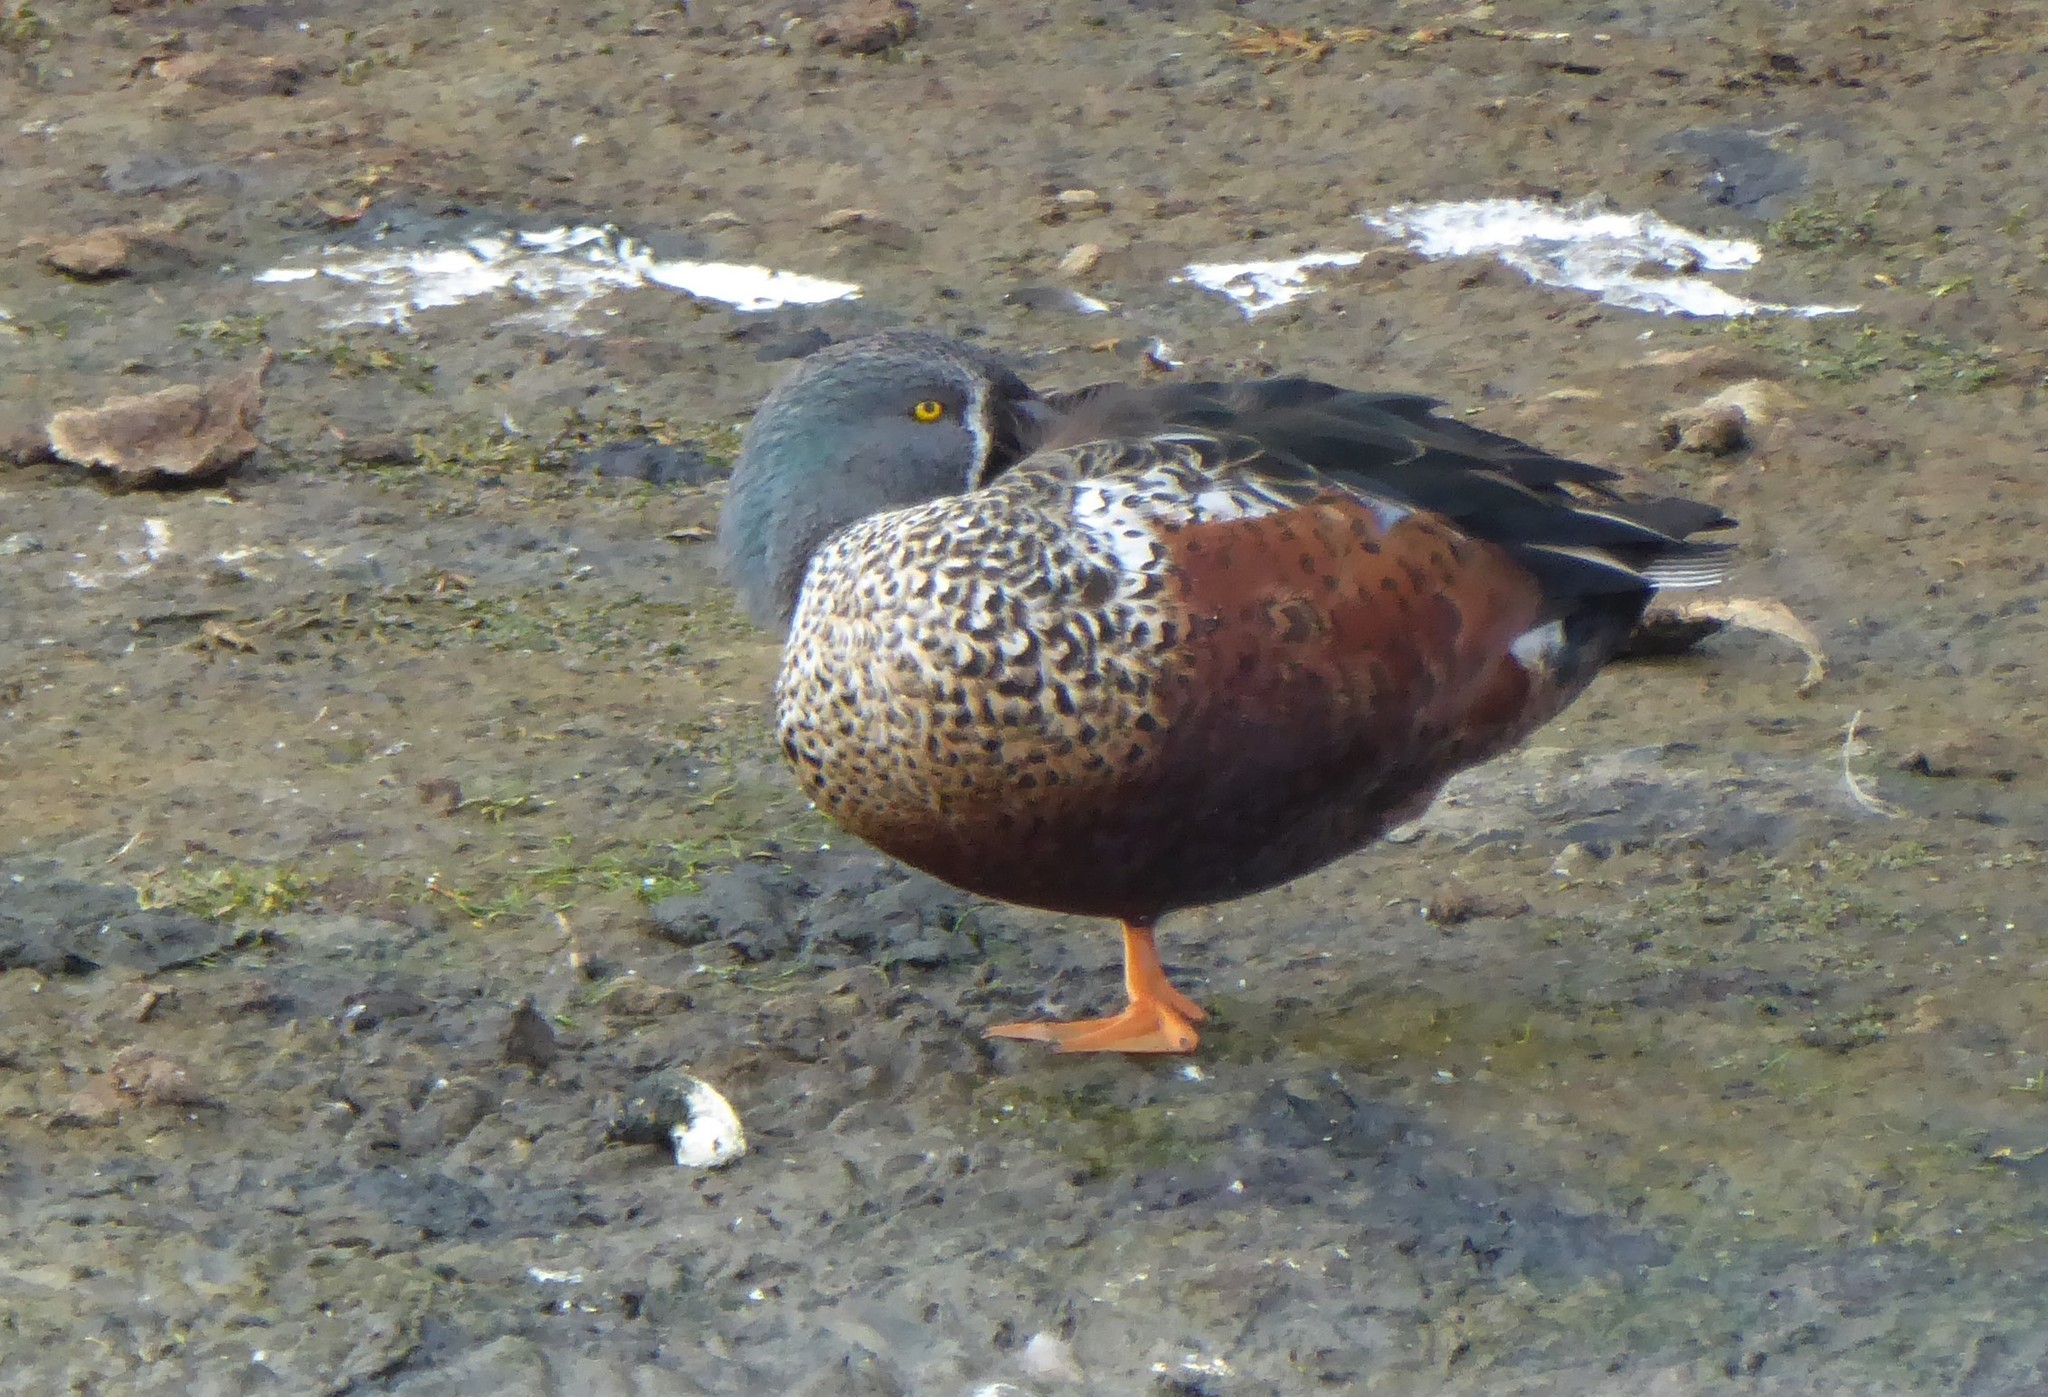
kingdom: Animalia
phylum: Chordata
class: Aves
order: Anseriformes
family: Anatidae
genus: Spatula
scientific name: Spatula rhynchotis
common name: Australian shoveler
